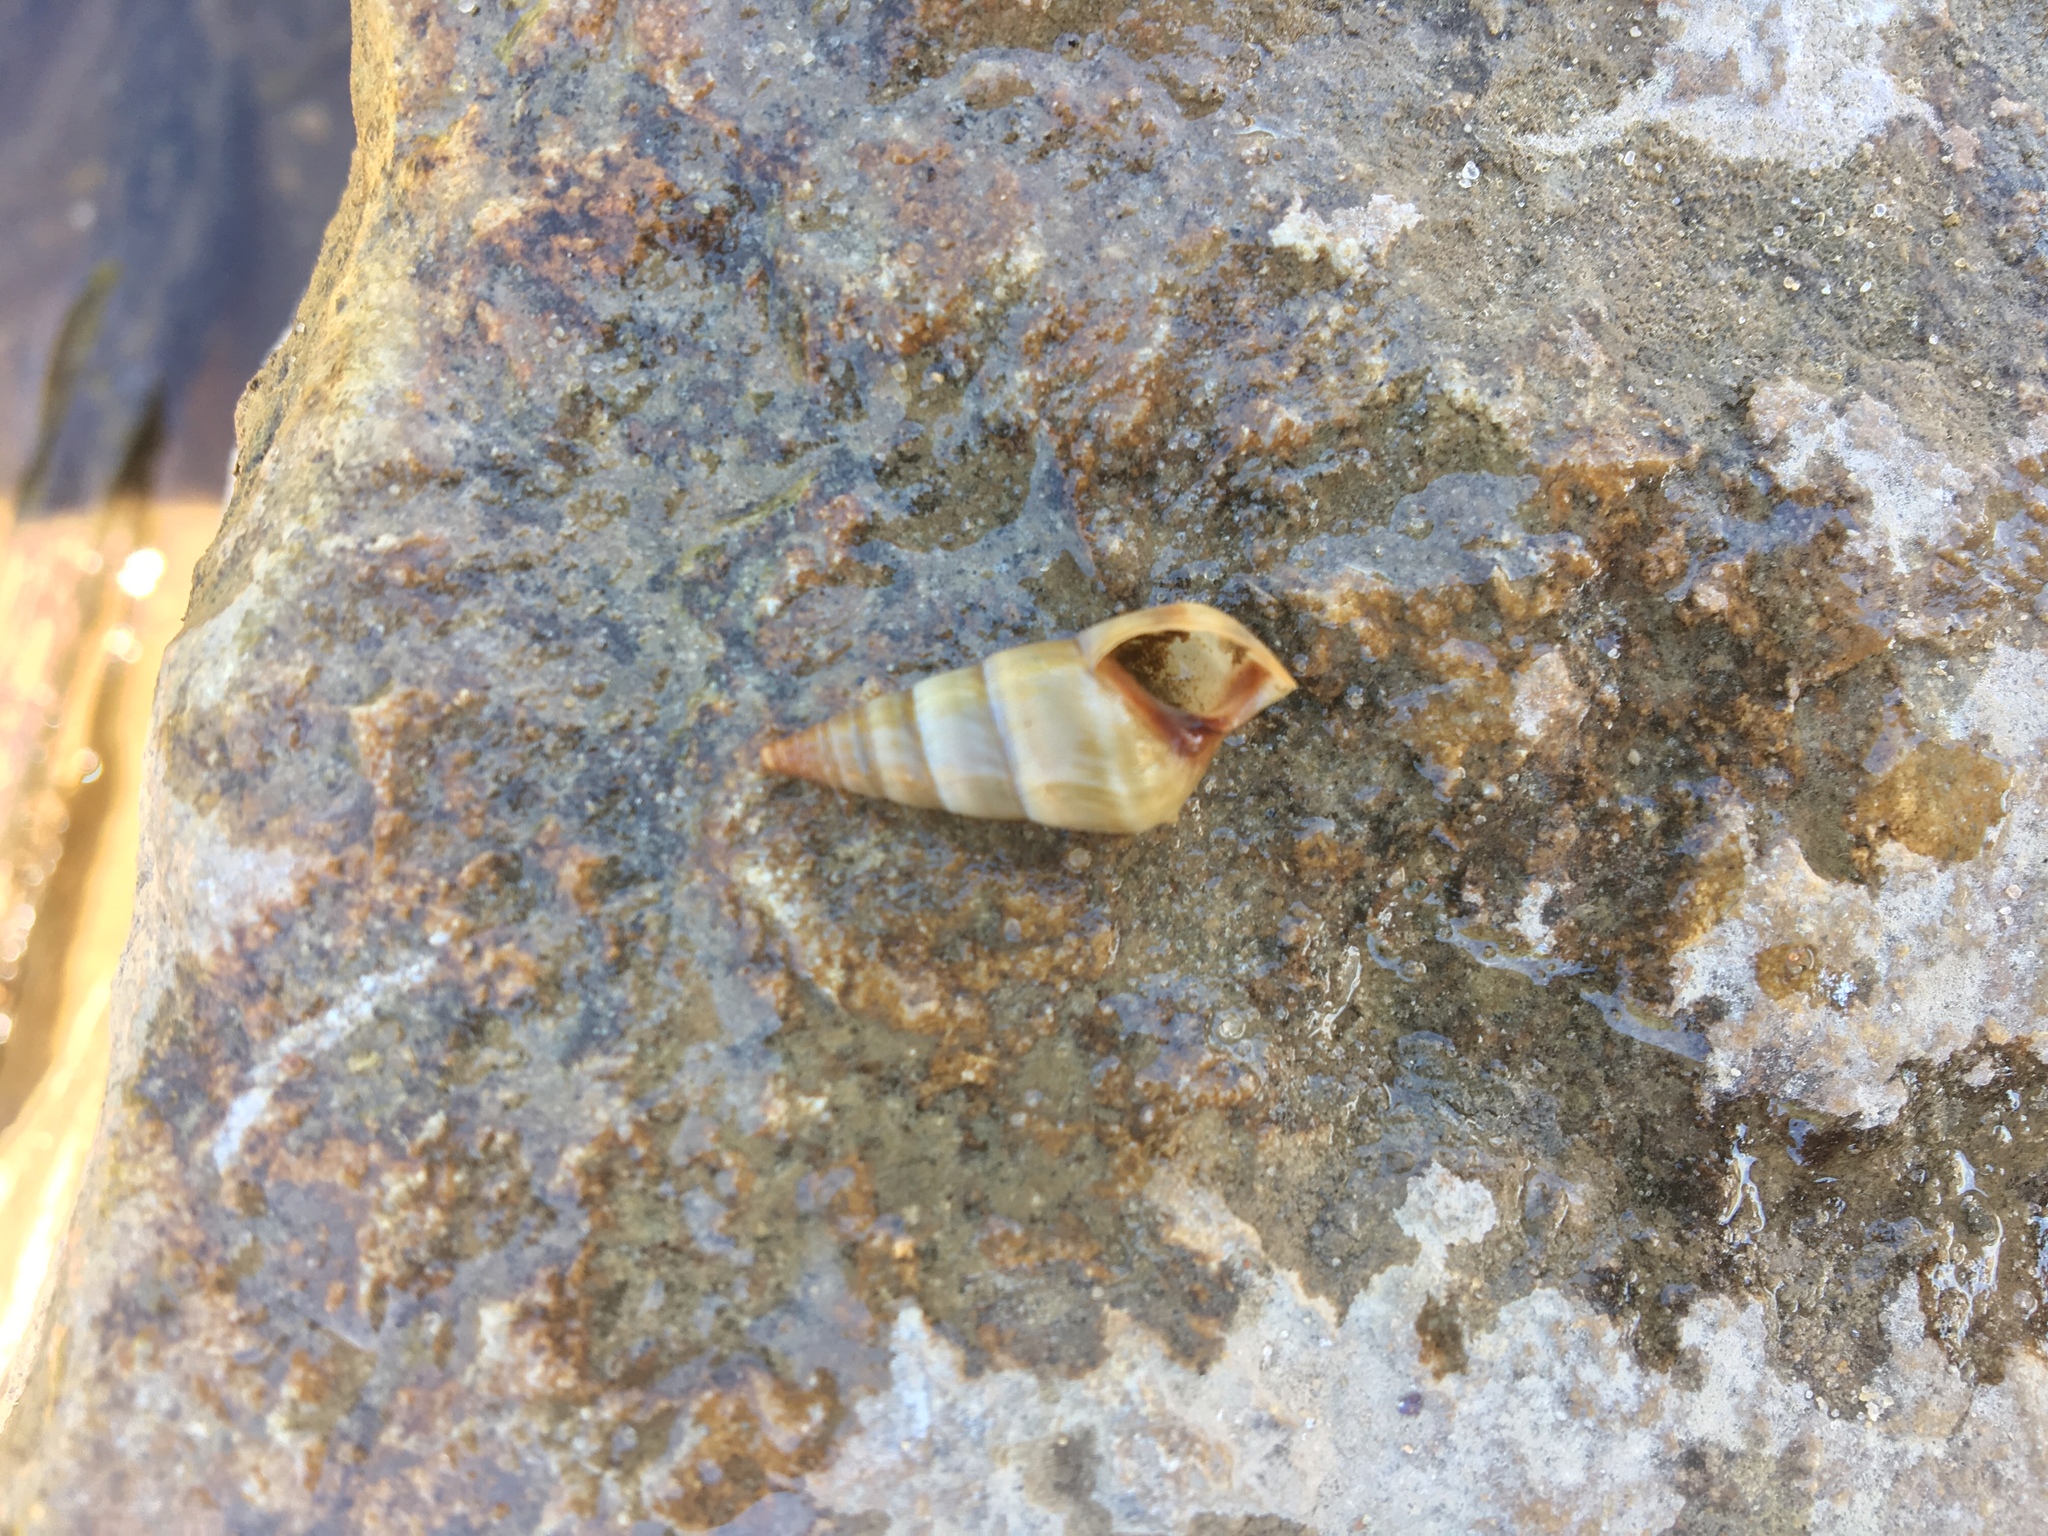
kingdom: Animalia
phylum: Mollusca
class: Gastropoda
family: Pleuroceridae
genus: Pleurocera
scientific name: Pleurocera acuta
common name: Sharp hornsnail
